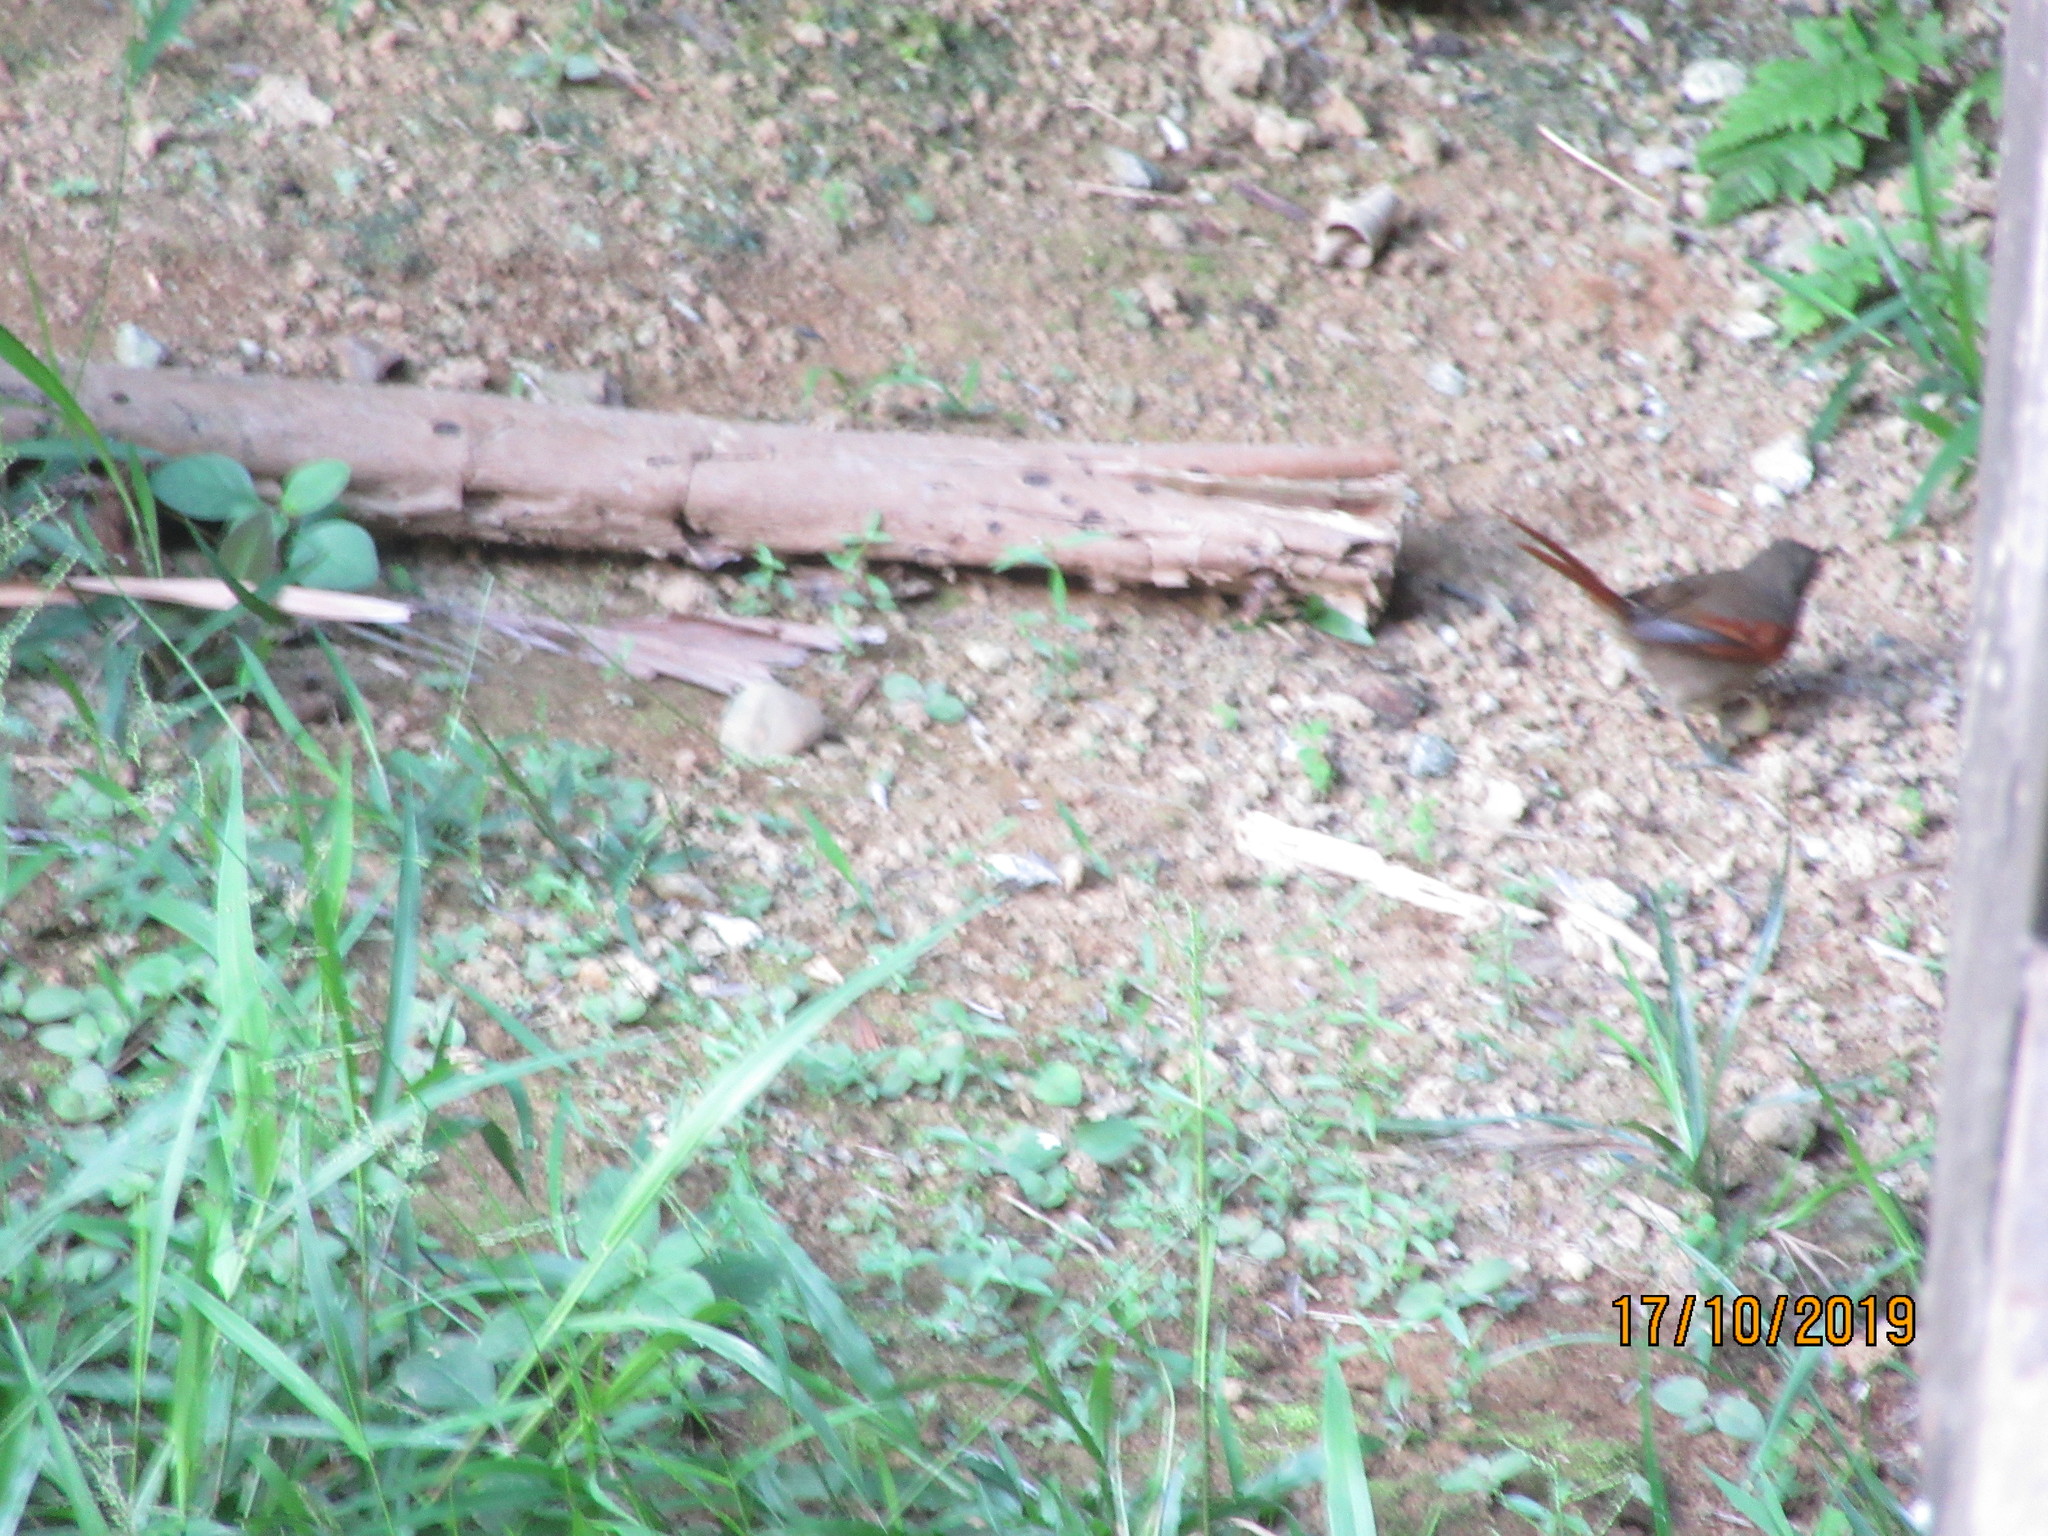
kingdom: Animalia
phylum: Chordata
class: Aves
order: Passeriformes
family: Furnariidae
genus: Synallaxis
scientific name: Synallaxis gujanensis
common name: Plain-crowned spinetail
